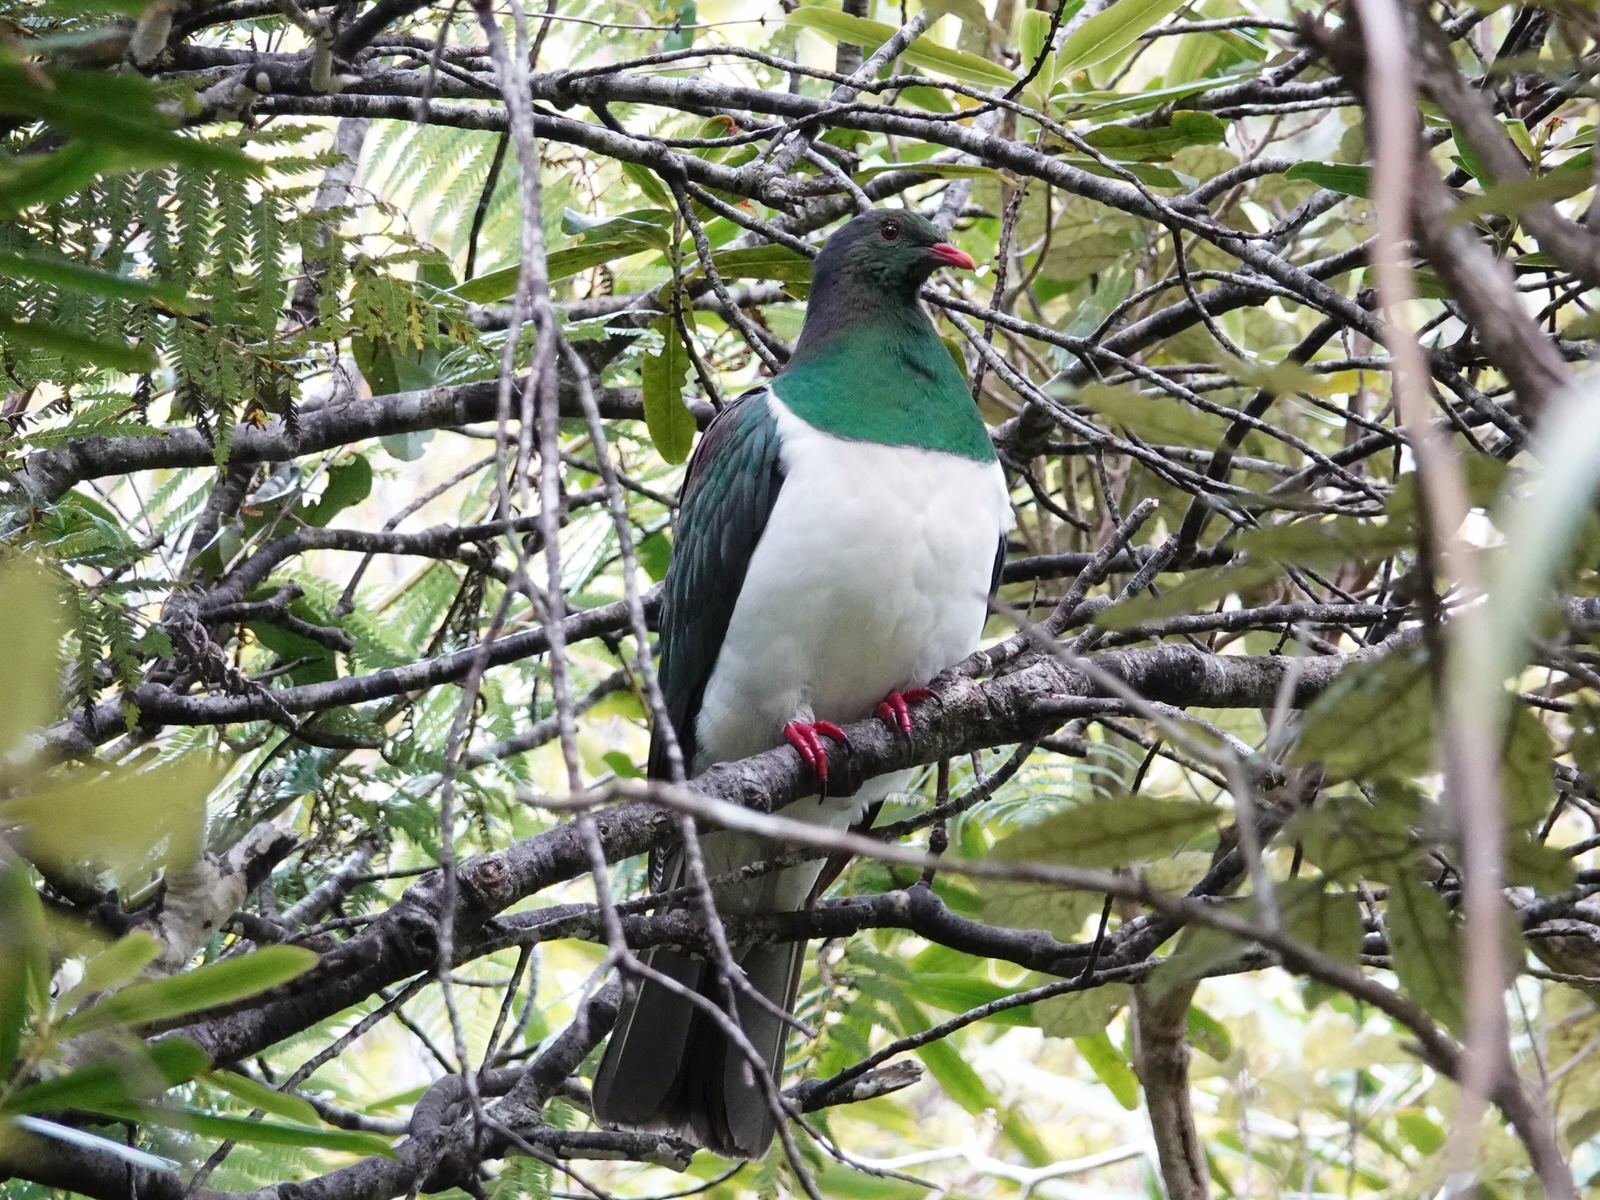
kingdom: Animalia
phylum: Chordata
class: Aves
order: Columbiformes
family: Columbidae
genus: Hemiphaga
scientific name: Hemiphaga novaeseelandiae
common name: New zealand pigeon
